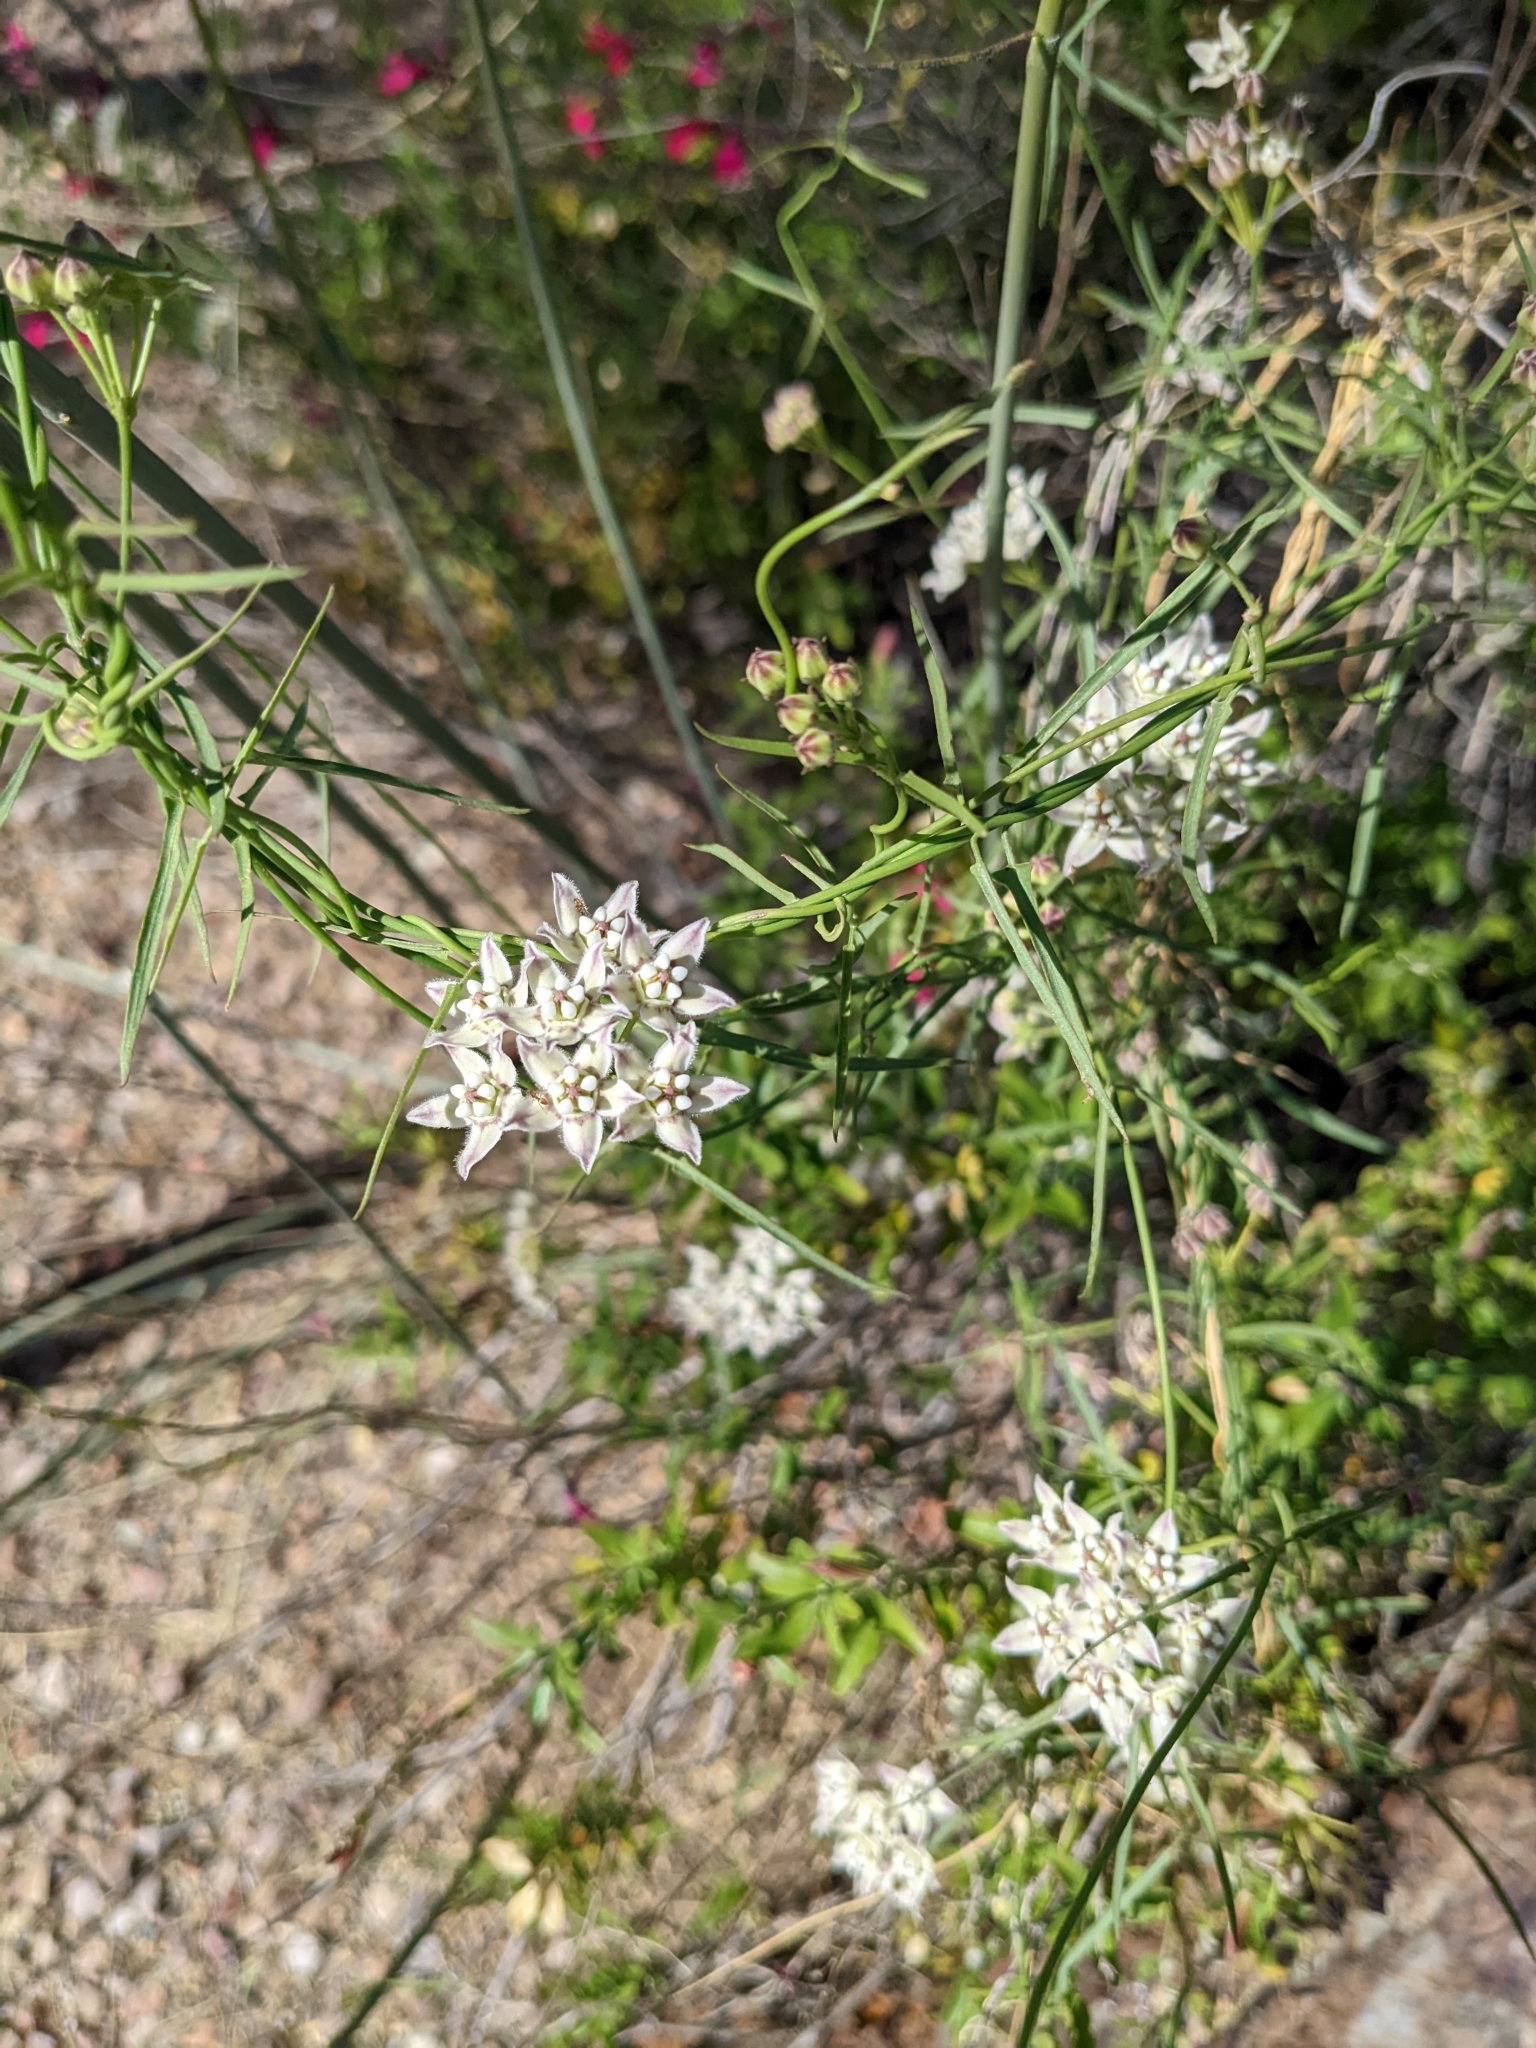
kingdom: Plantae
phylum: Tracheophyta
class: Magnoliopsida
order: Gentianales
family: Apocynaceae
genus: Funastrum
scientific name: Funastrum heterophyllum
